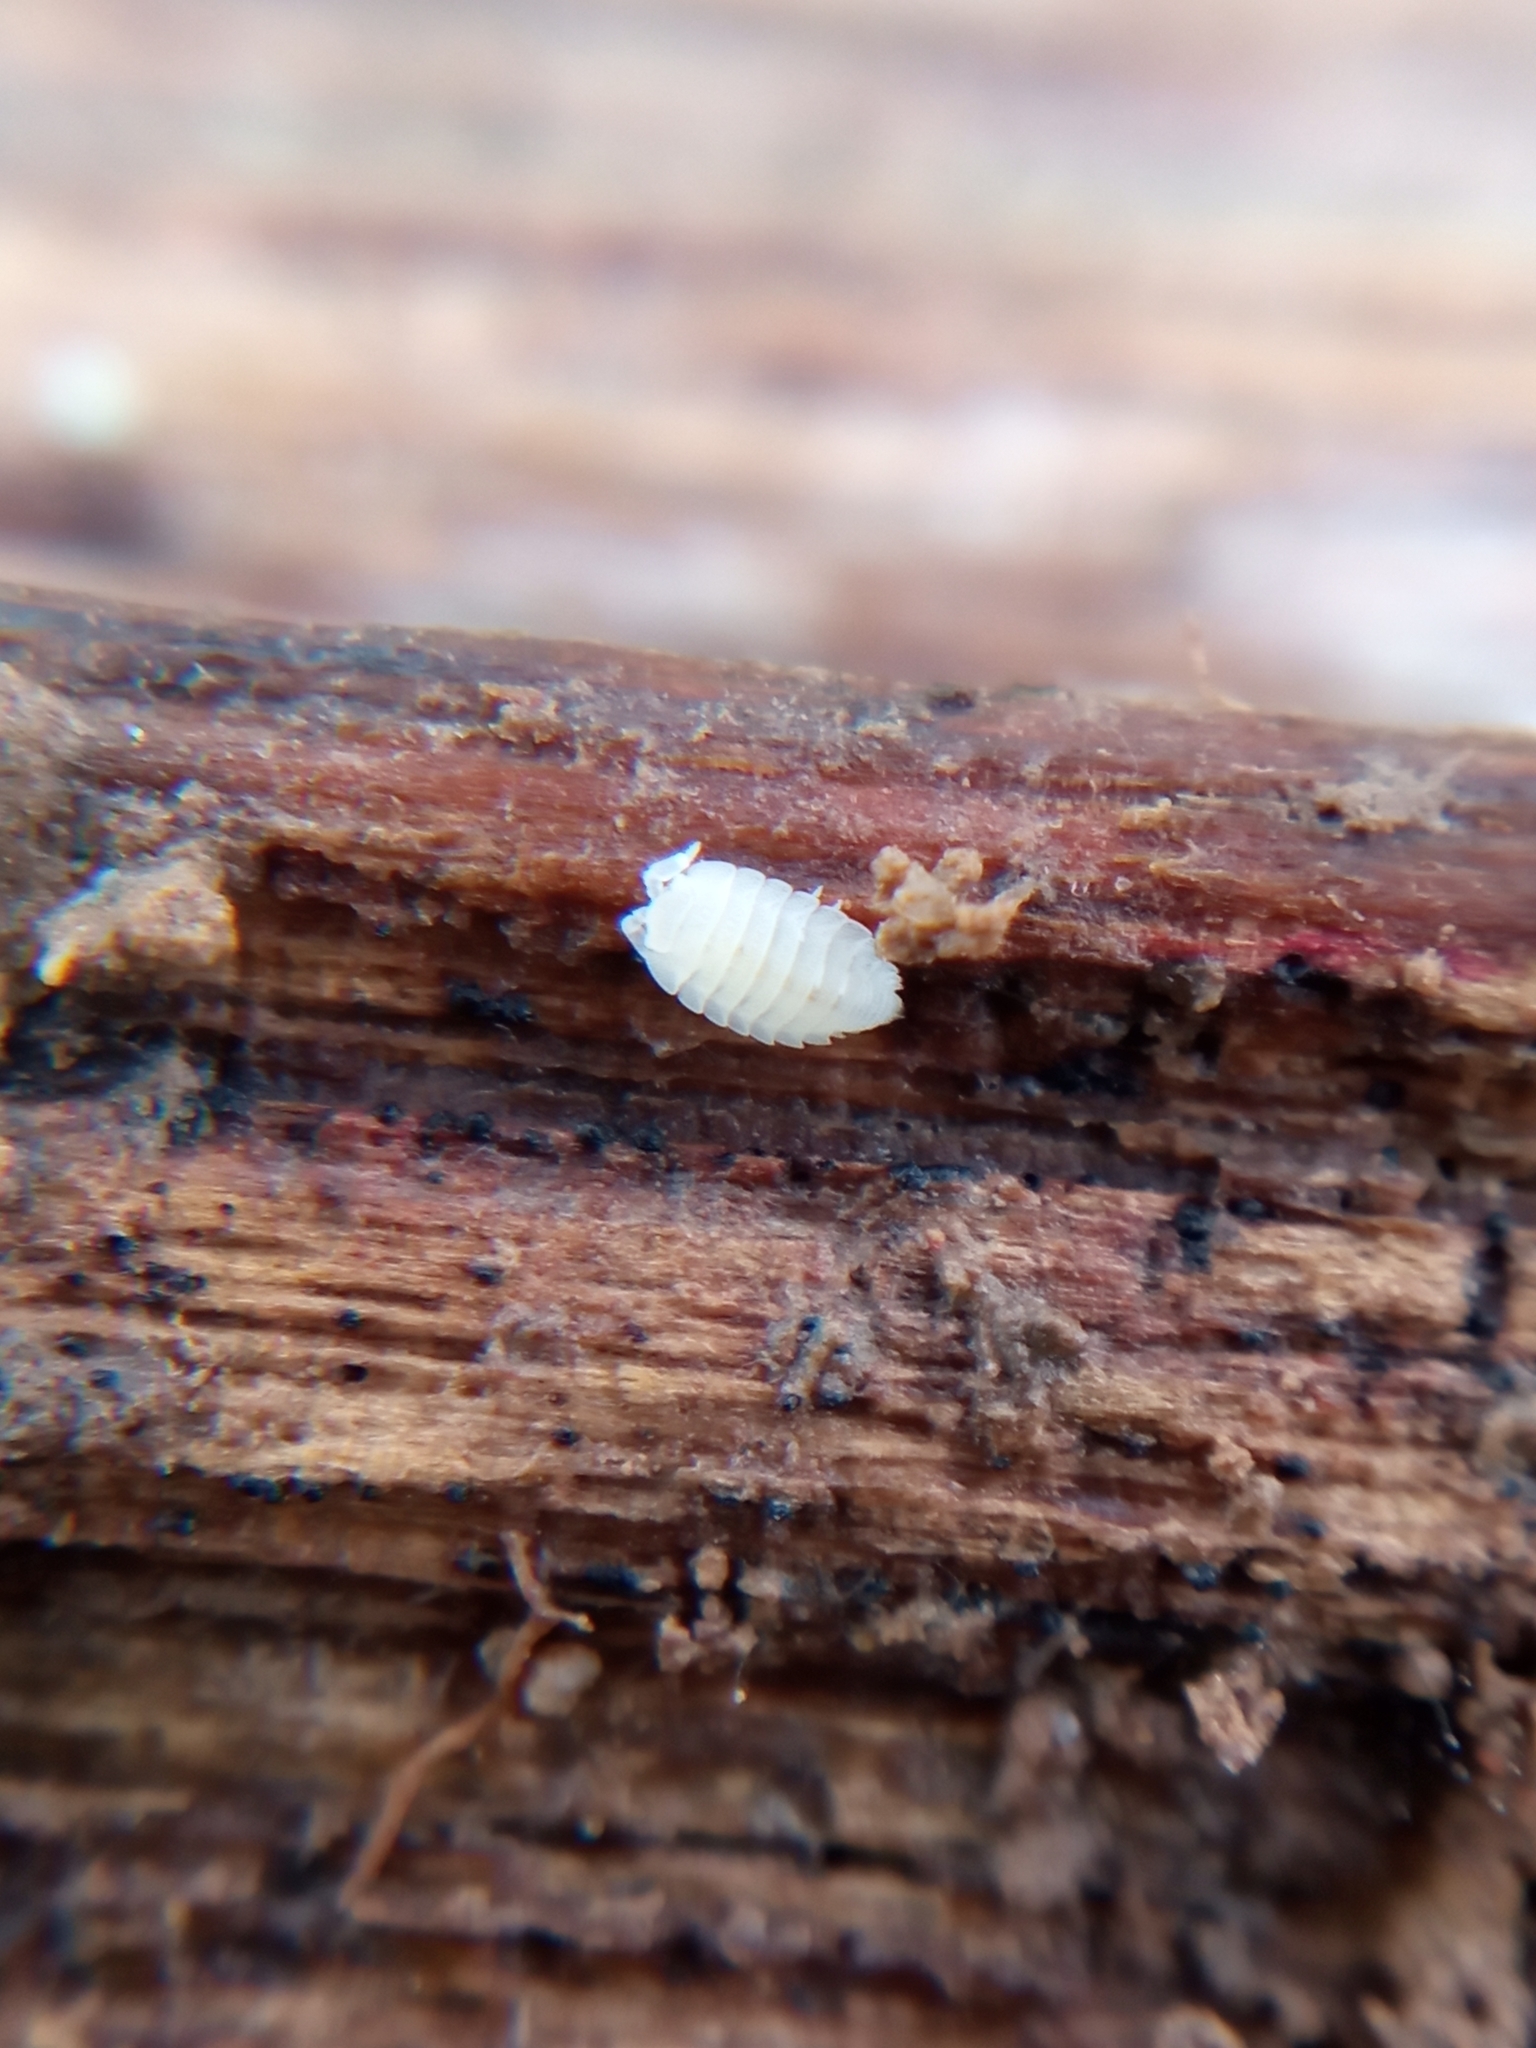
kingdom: Animalia
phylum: Arthropoda
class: Malacostraca
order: Isopoda
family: Platyarthridae
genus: Platyarthrus
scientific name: Platyarthrus hoffmannseggii
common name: Ant woodlouse
